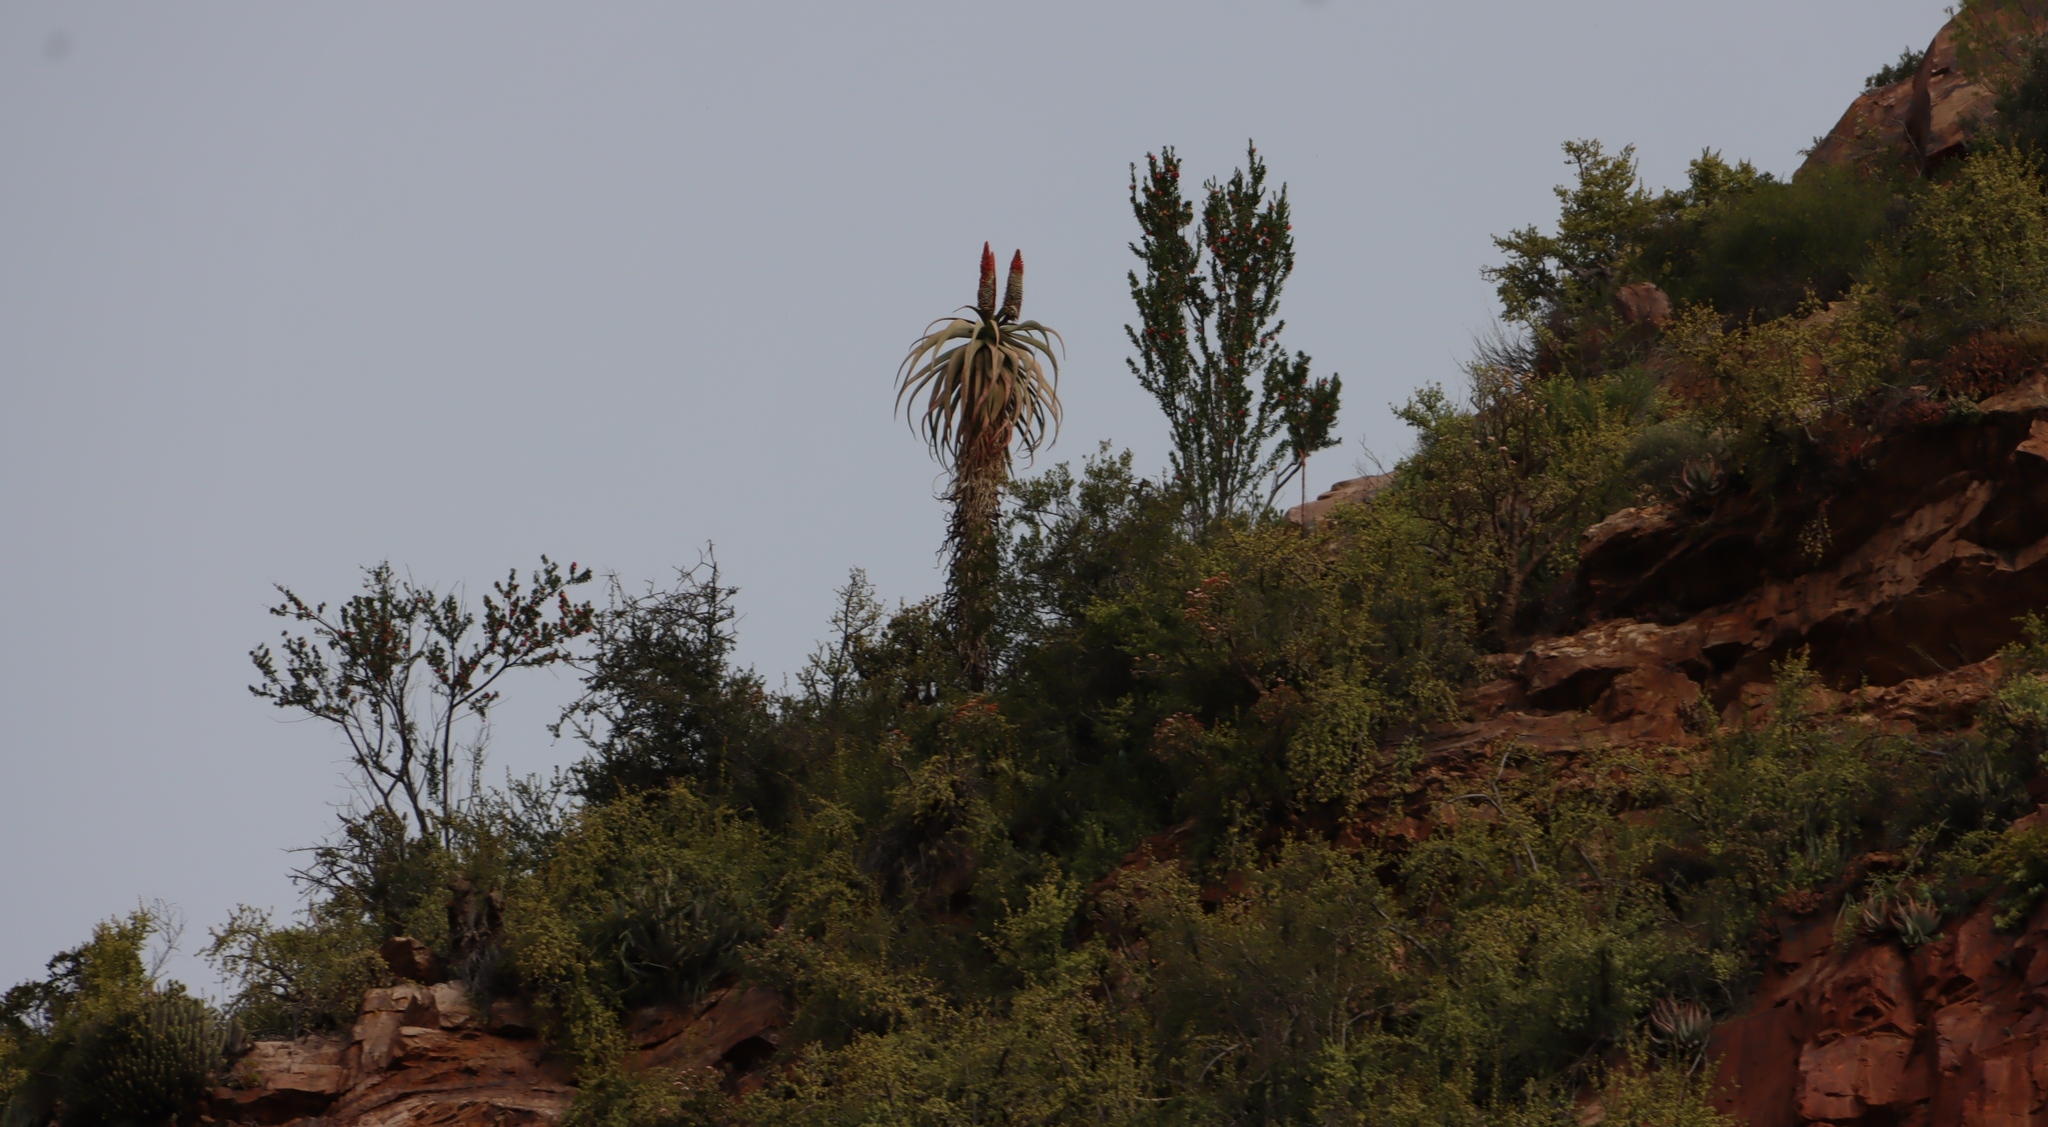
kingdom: Plantae
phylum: Tracheophyta
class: Liliopsida
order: Asparagales
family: Asphodelaceae
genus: Aloe
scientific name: Aloe pluridens
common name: French aloe
